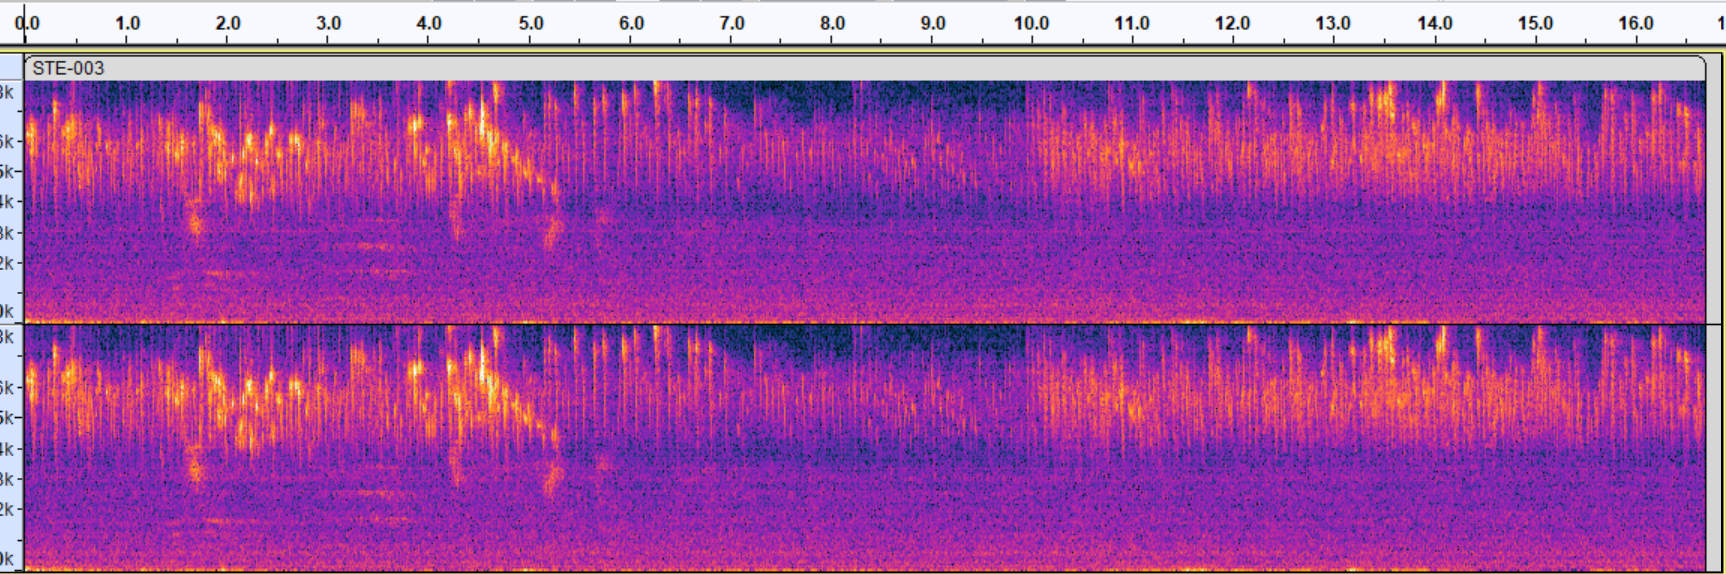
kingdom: Animalia
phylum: Chordata
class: Aves
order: Apodiformes
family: Apodidae
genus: Chaetura
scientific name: Chaetura pelagica
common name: Chimney swift
